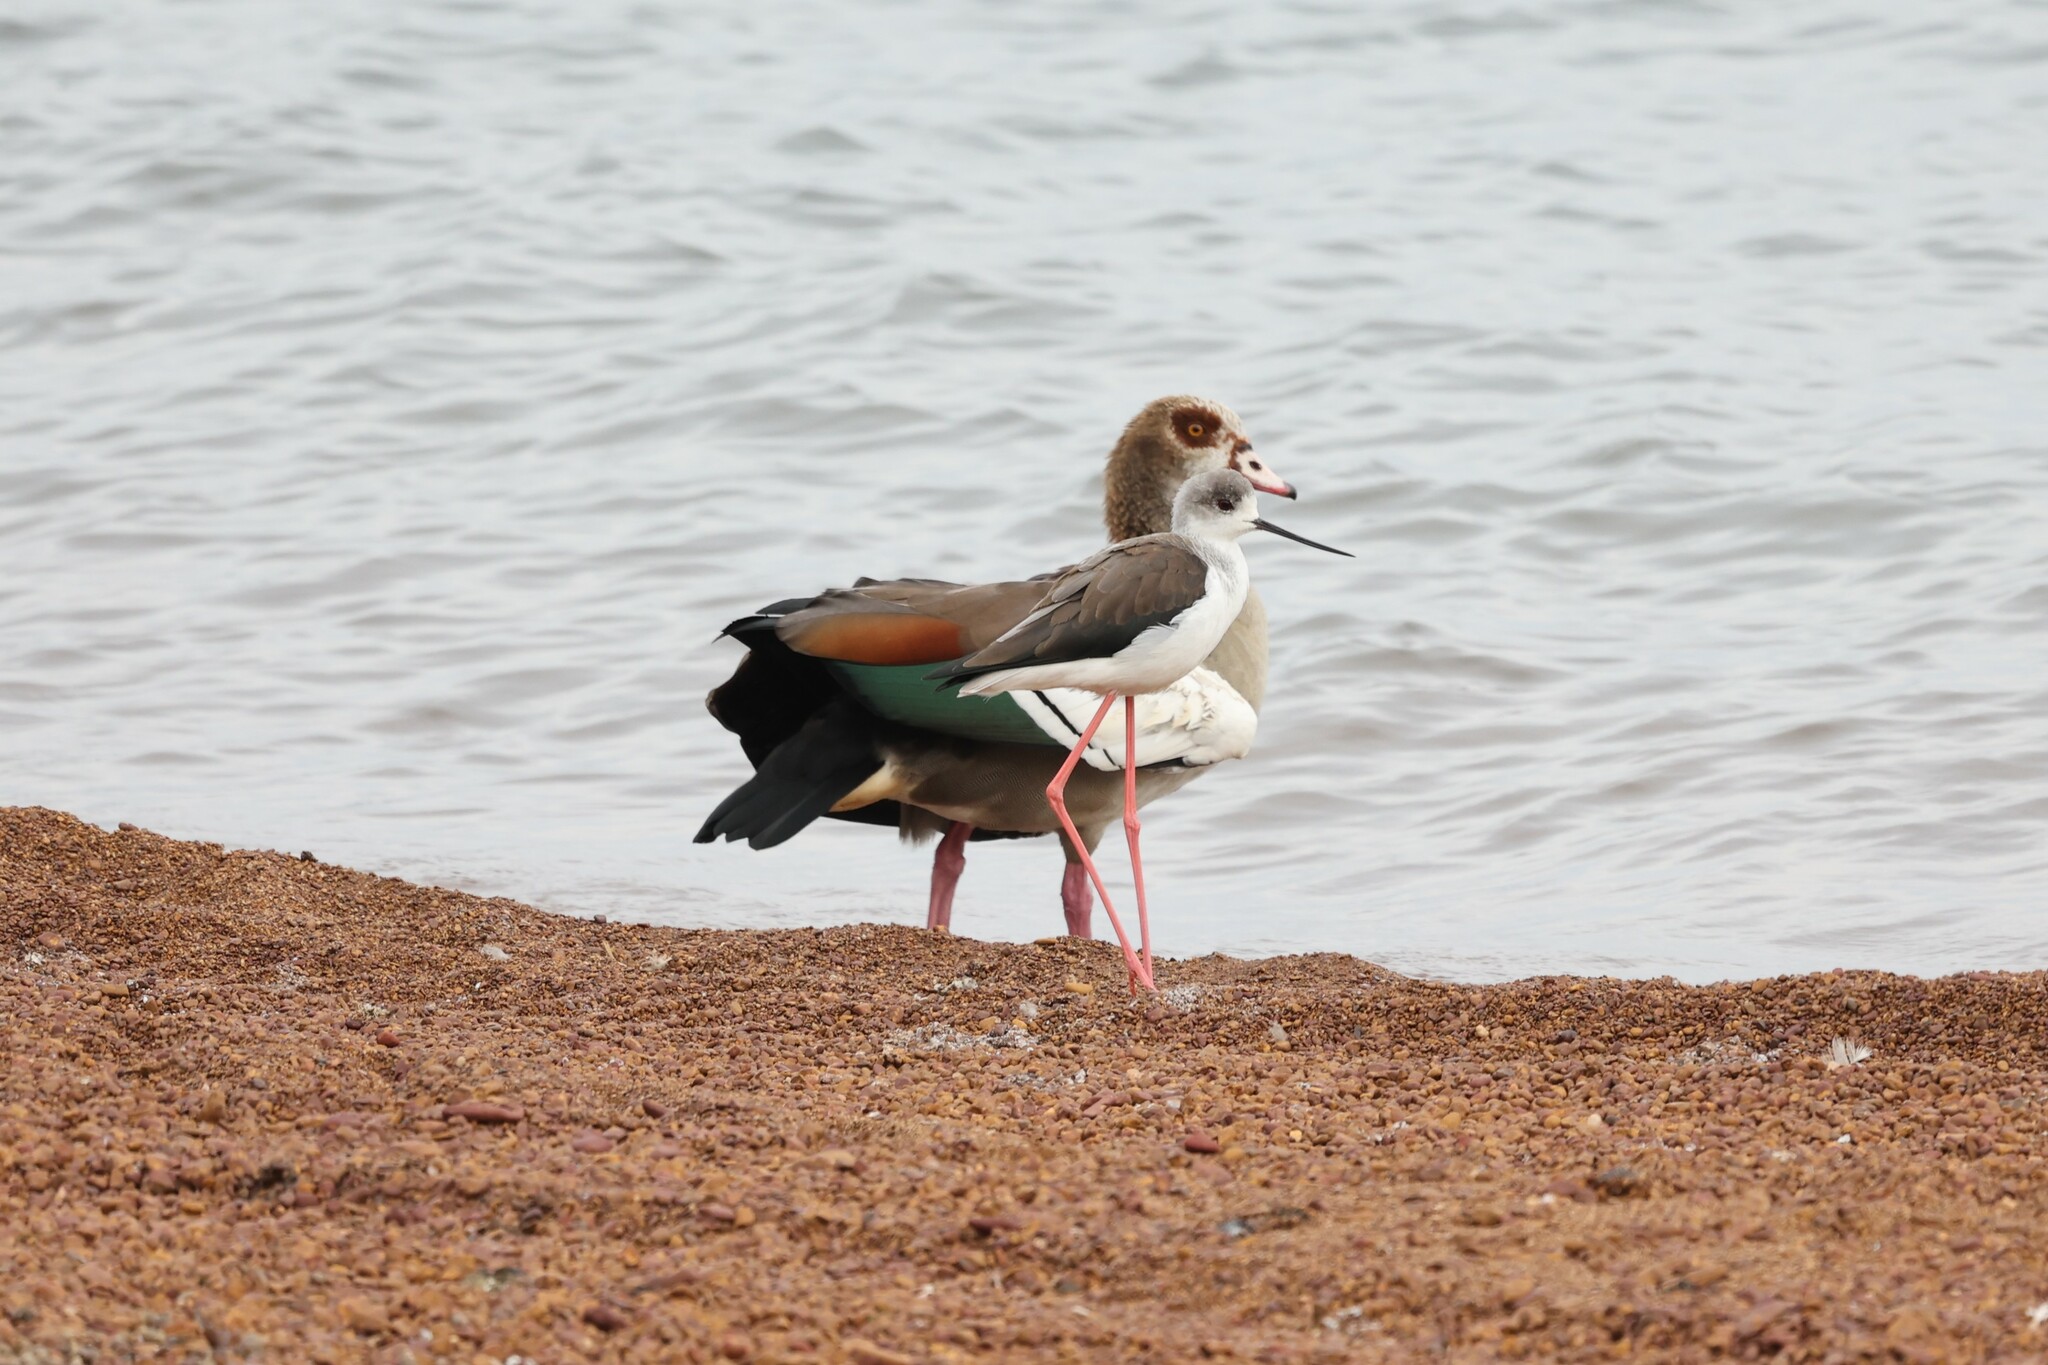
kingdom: Animalia
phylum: Chordata
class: Aves
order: Anseriformes
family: Anatidae
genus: Alopochen
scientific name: Alopochen aegyptiaca
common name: Egyptian goose
